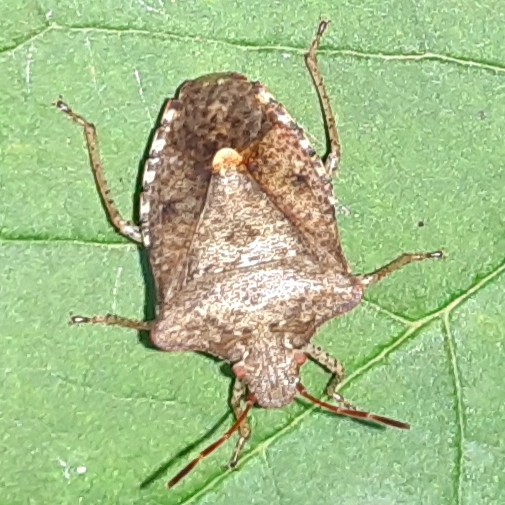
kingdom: Animalia
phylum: Arthropoda
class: Insecta
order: Hemiptera
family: Pentatomidae
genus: Euschistus
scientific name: Euschistus servus
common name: Brown stink bug
